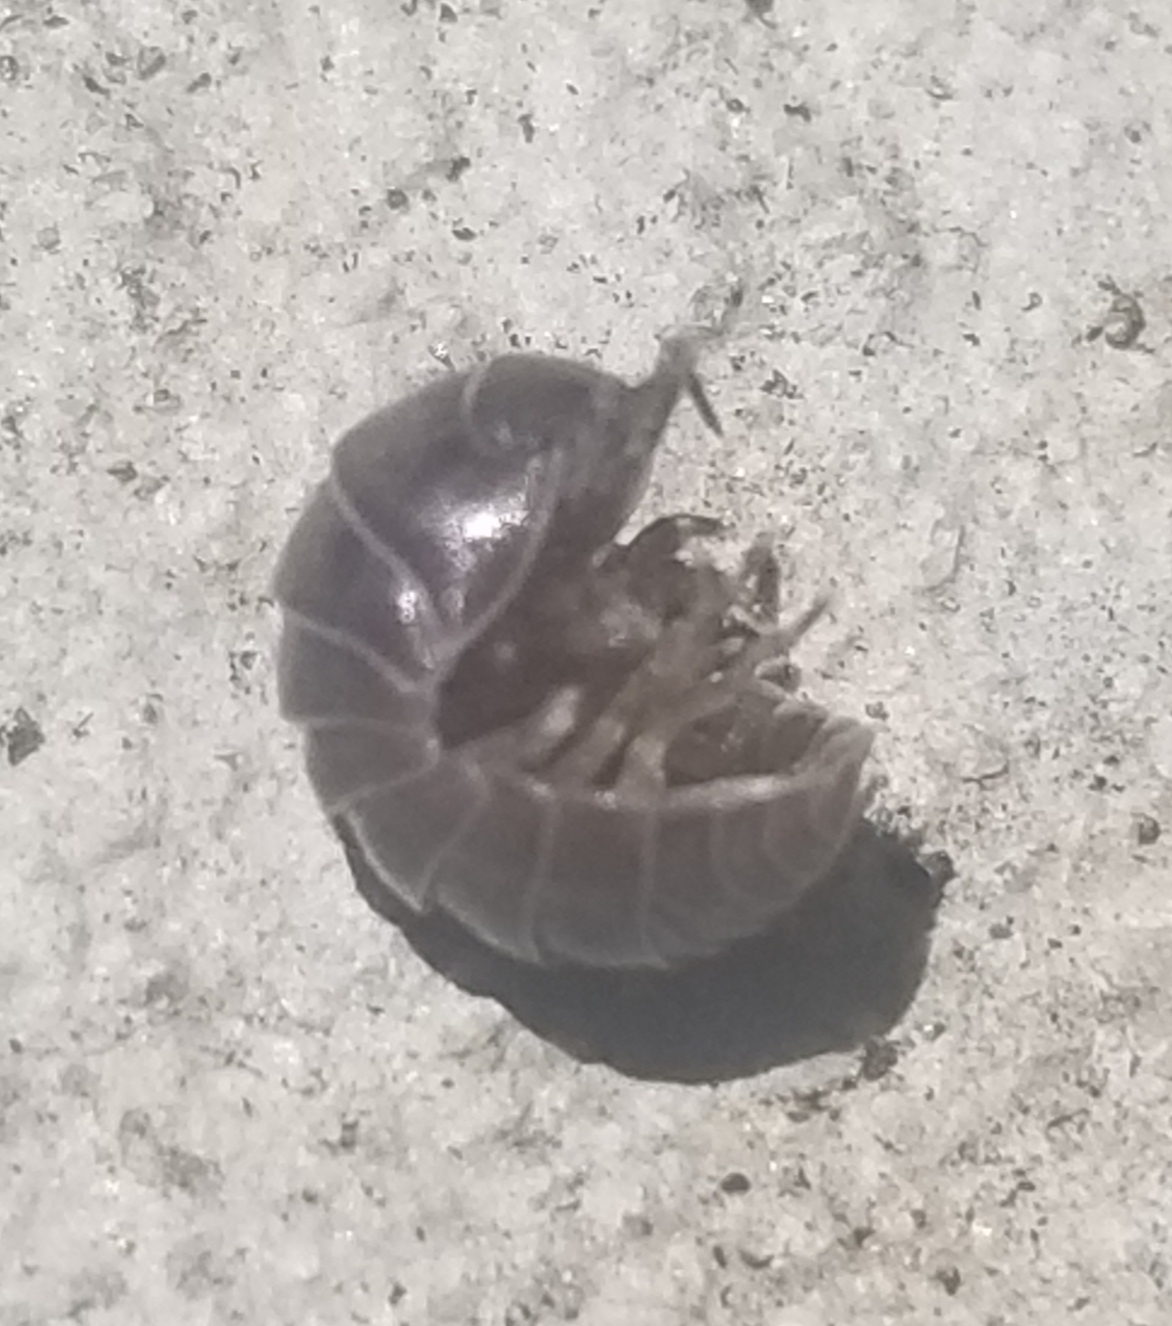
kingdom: Animalia
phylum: Arthropoda
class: Malacostraca
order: Isopoda
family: Armadillidiidae
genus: Armadillidium
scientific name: Armadillidium vulgare
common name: Common pill woodlouse
